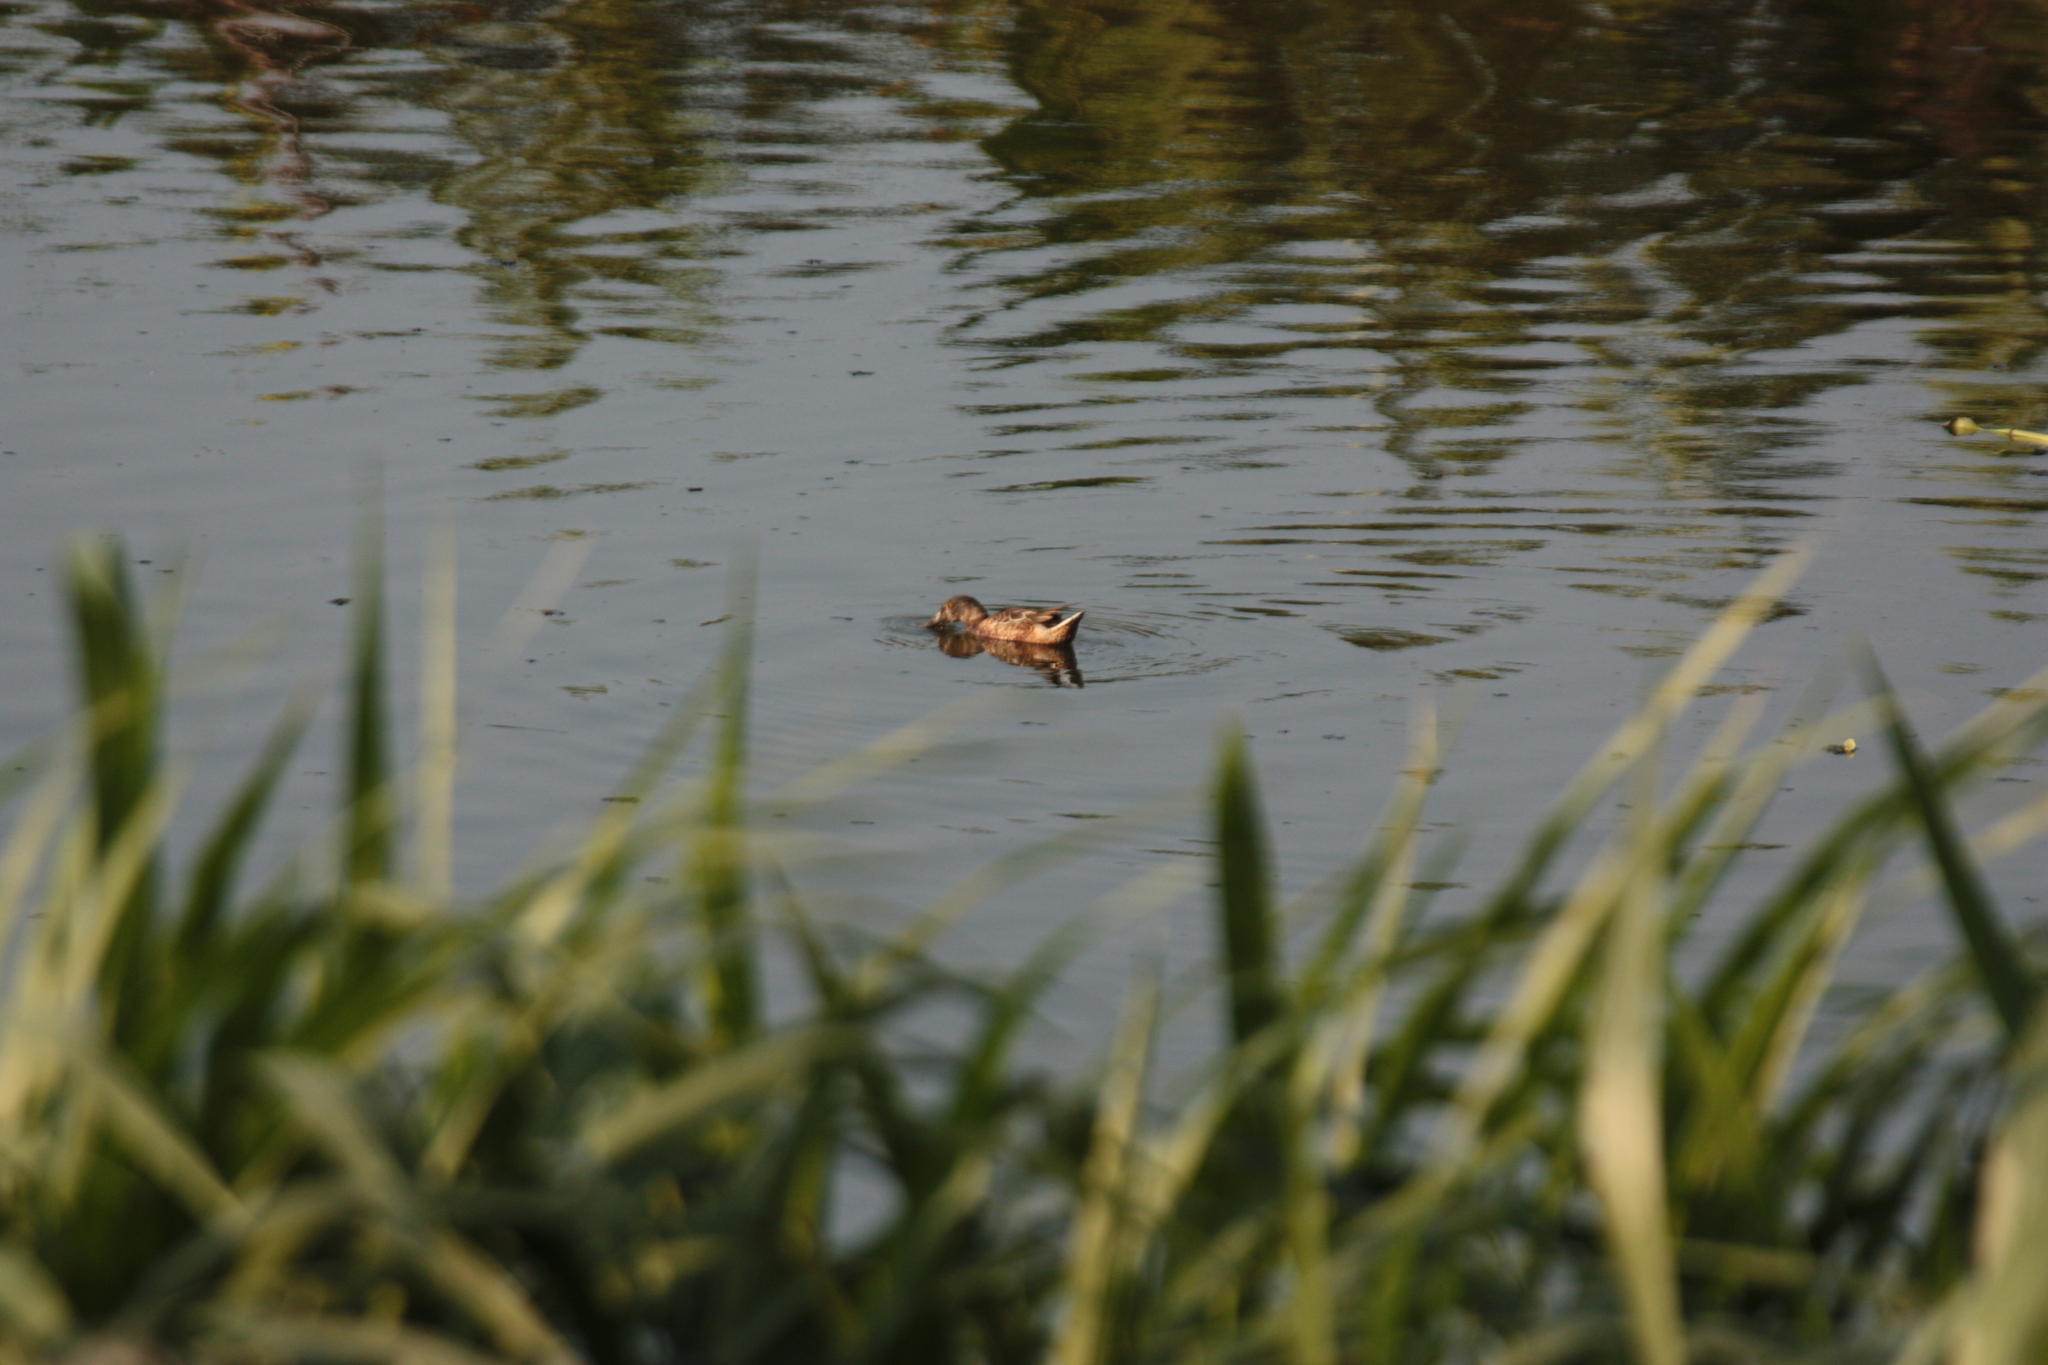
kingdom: Animalia
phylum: Chordata
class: Aves
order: Anseriformes
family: Anatidae
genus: Spatula
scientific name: Spatula clypeata
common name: Northern shoveler
